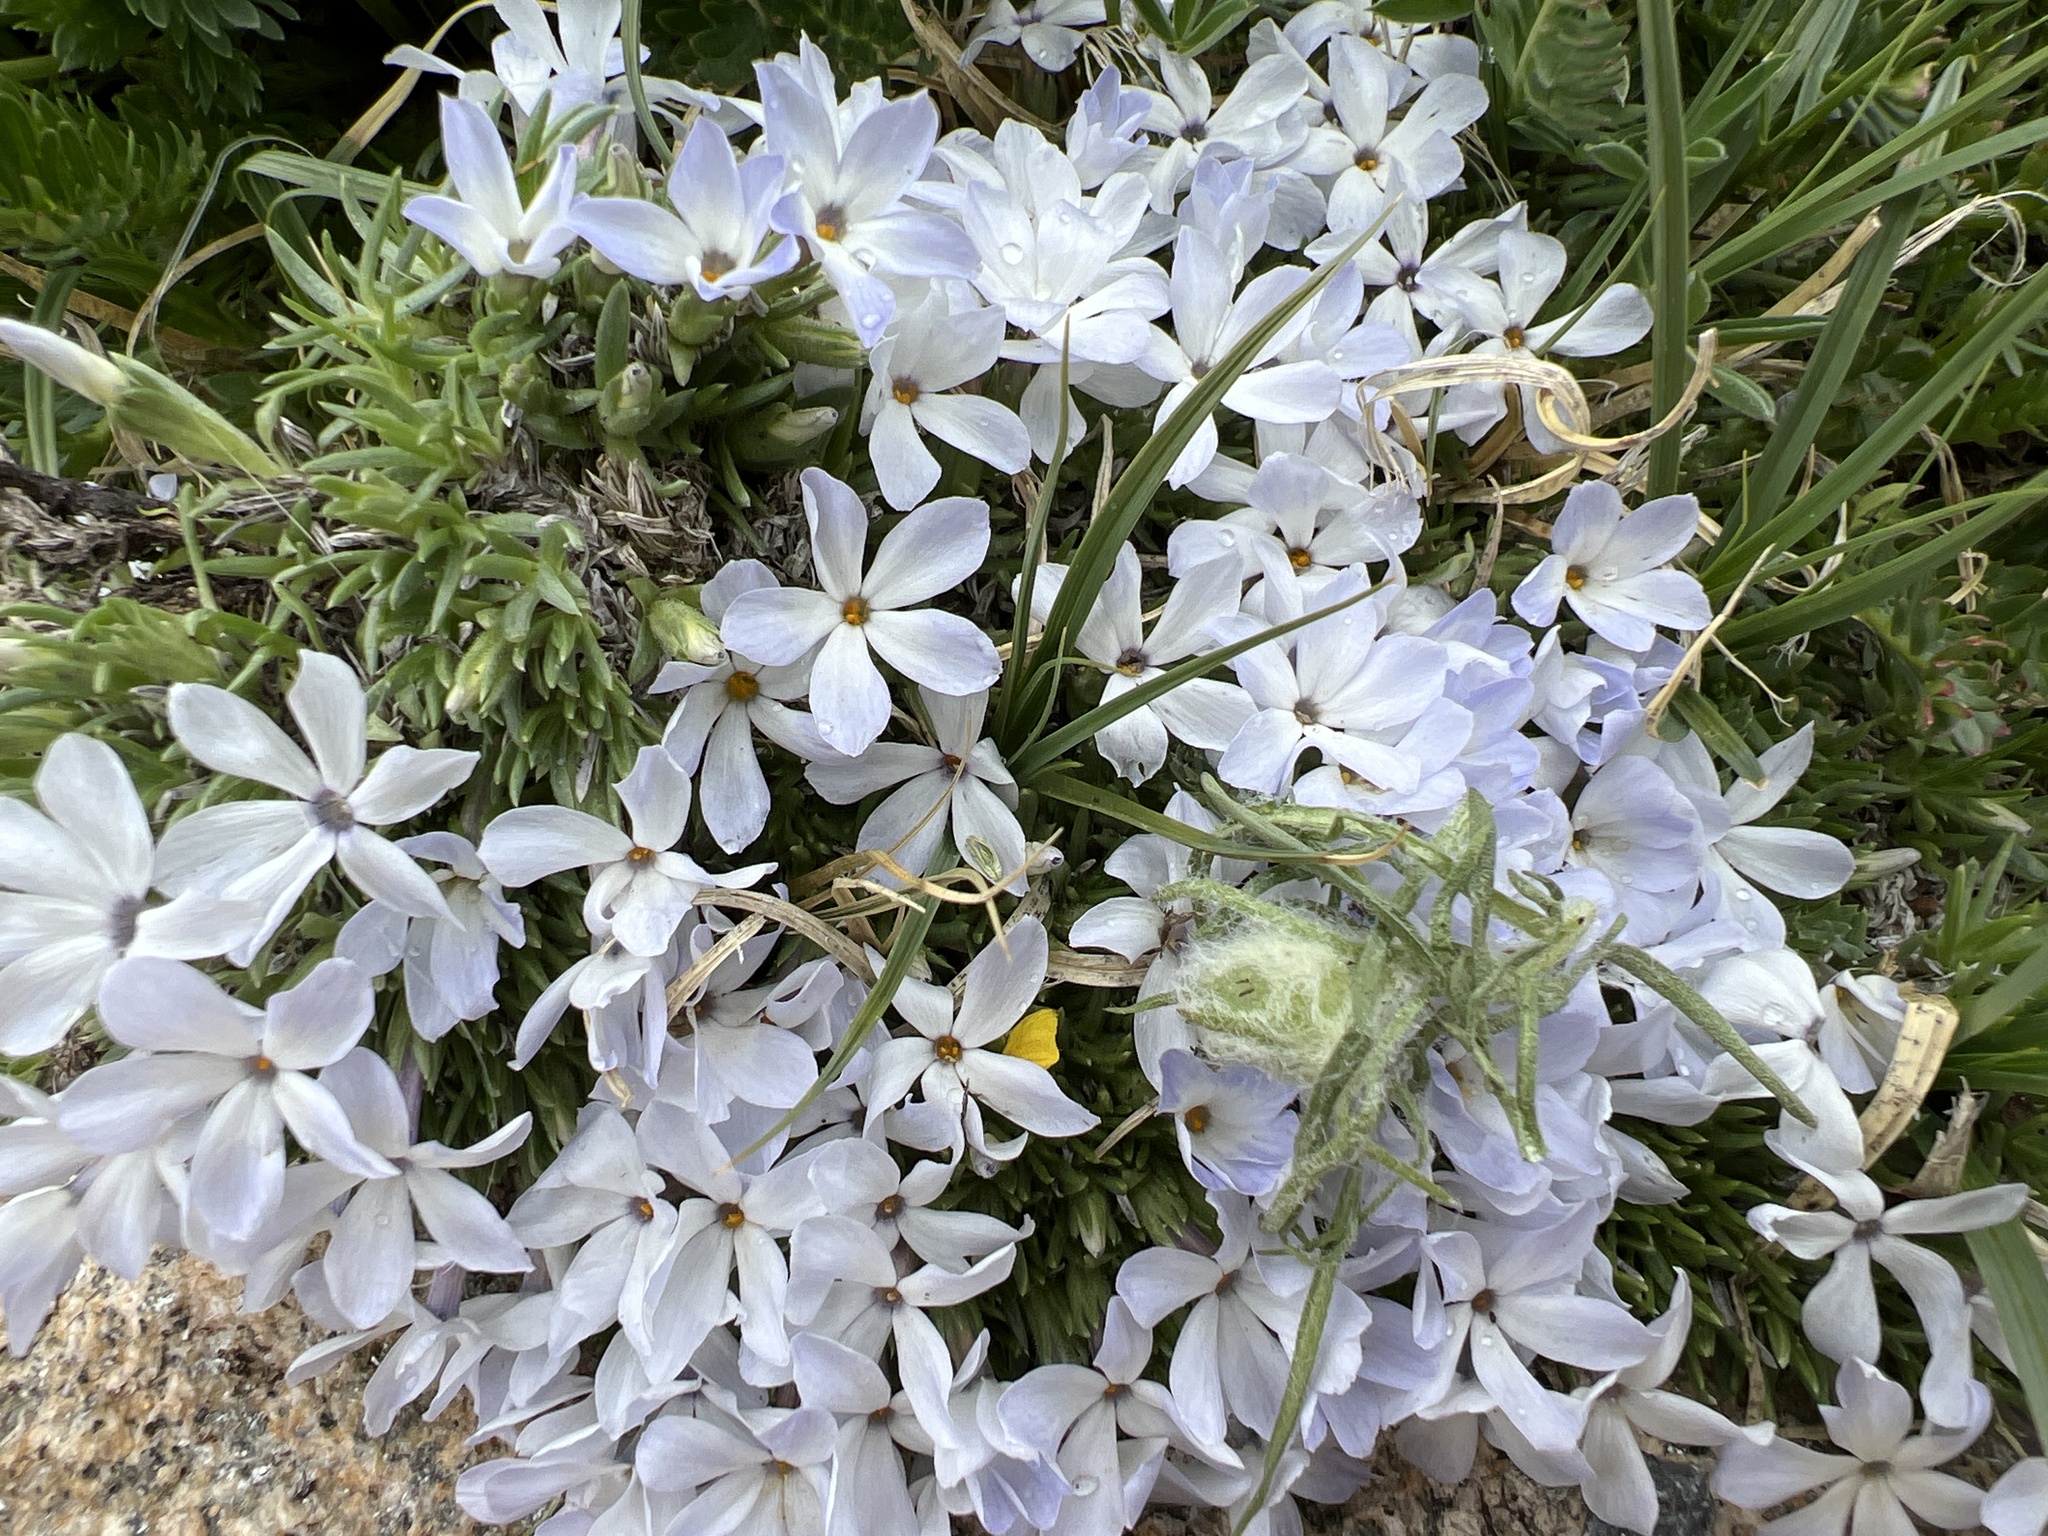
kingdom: Plantae
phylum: Tracheophyta
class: Magnoliopsida
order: Ericales
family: Polemoniaceae
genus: Phlox
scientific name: Phlox condensata
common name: Compact phlox
